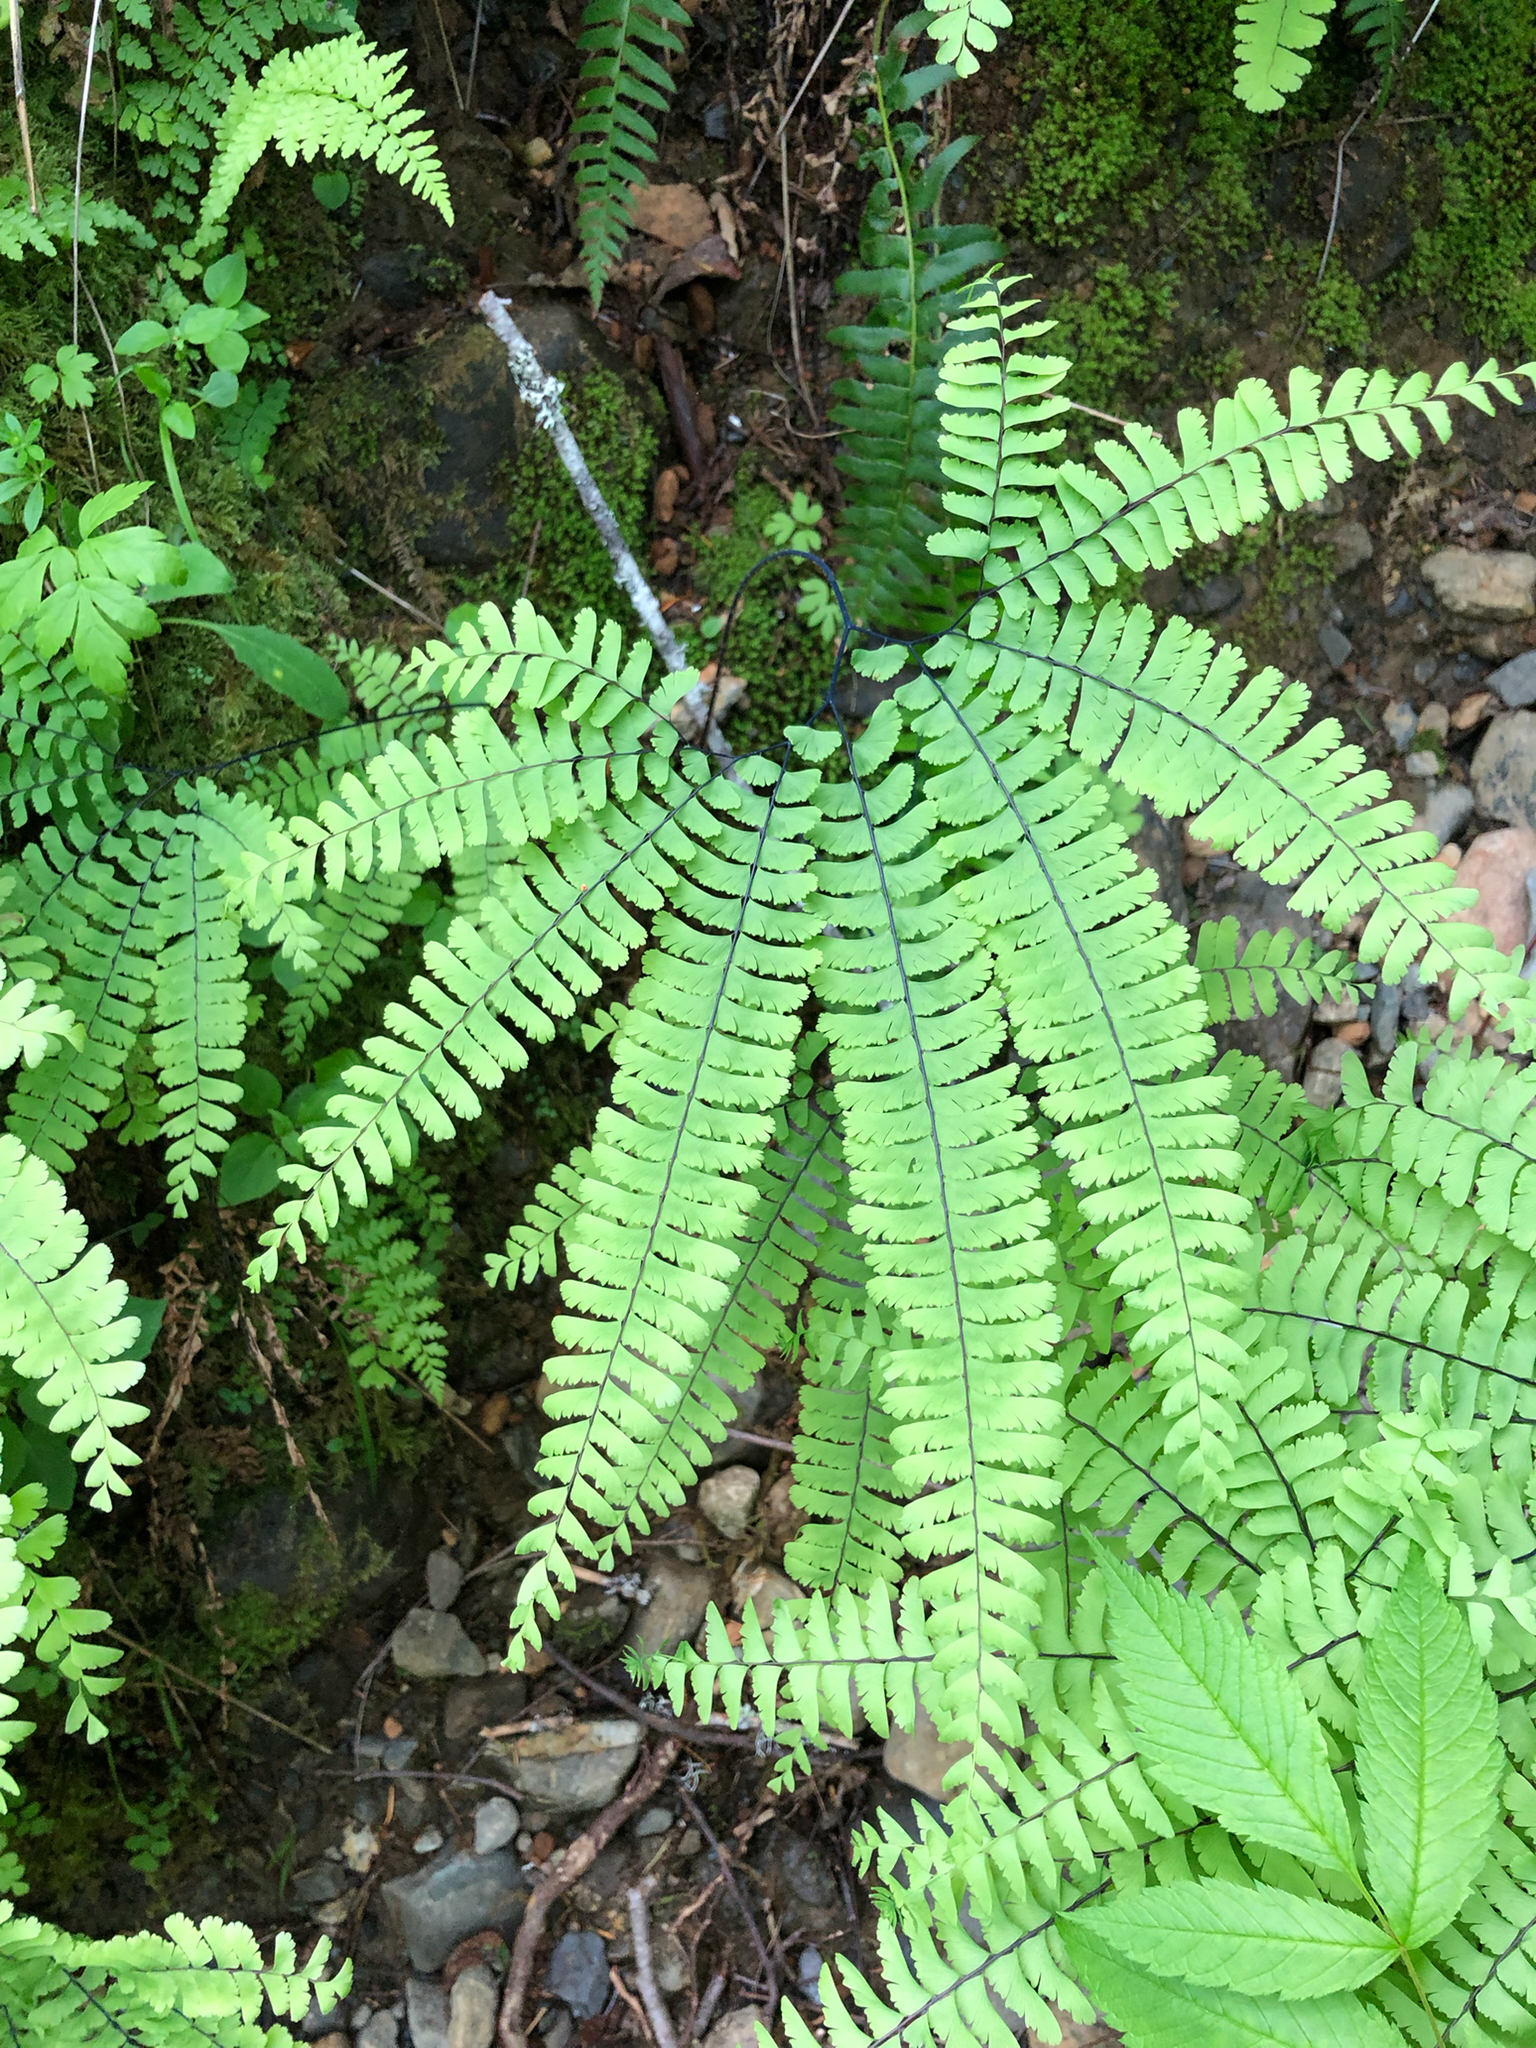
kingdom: Plantae
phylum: Tracheophyta
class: Polypodiopsida
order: Polypodiales
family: Pteridaceae
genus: Adiantum
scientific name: Adiantum aleuticum
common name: Aleutian maidenhair fern
